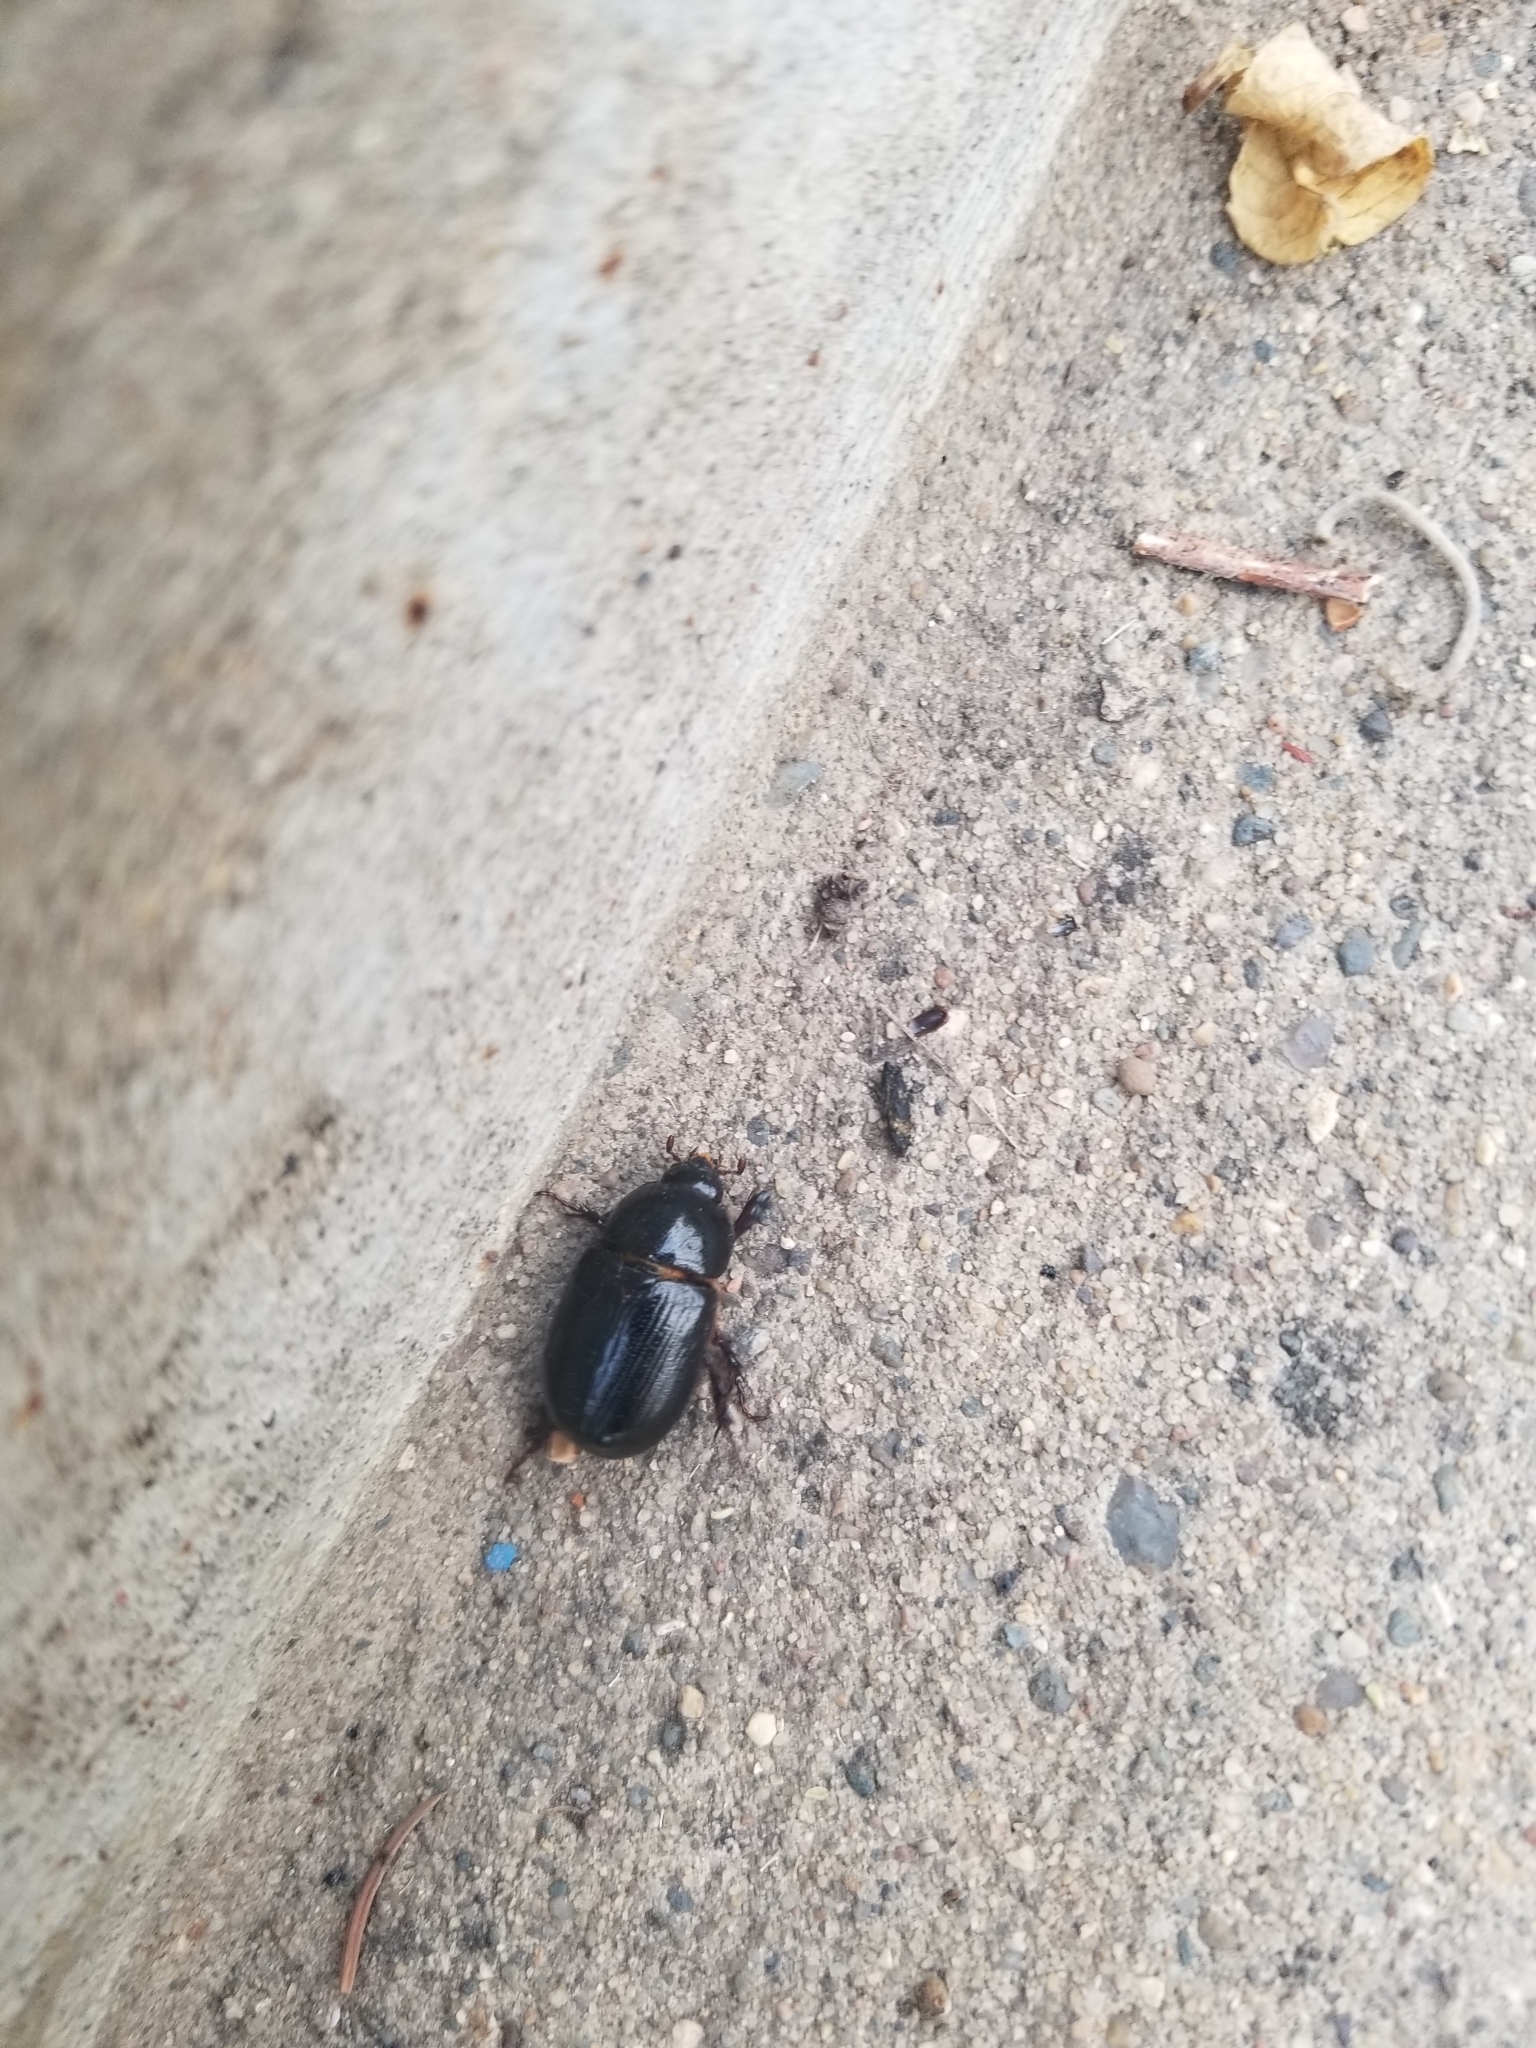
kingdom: Animalia
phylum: Arthropoda
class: Insecta
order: Coleoptera
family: Scarabaeidae
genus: Ligyrus
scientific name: Ligyrus relictus
